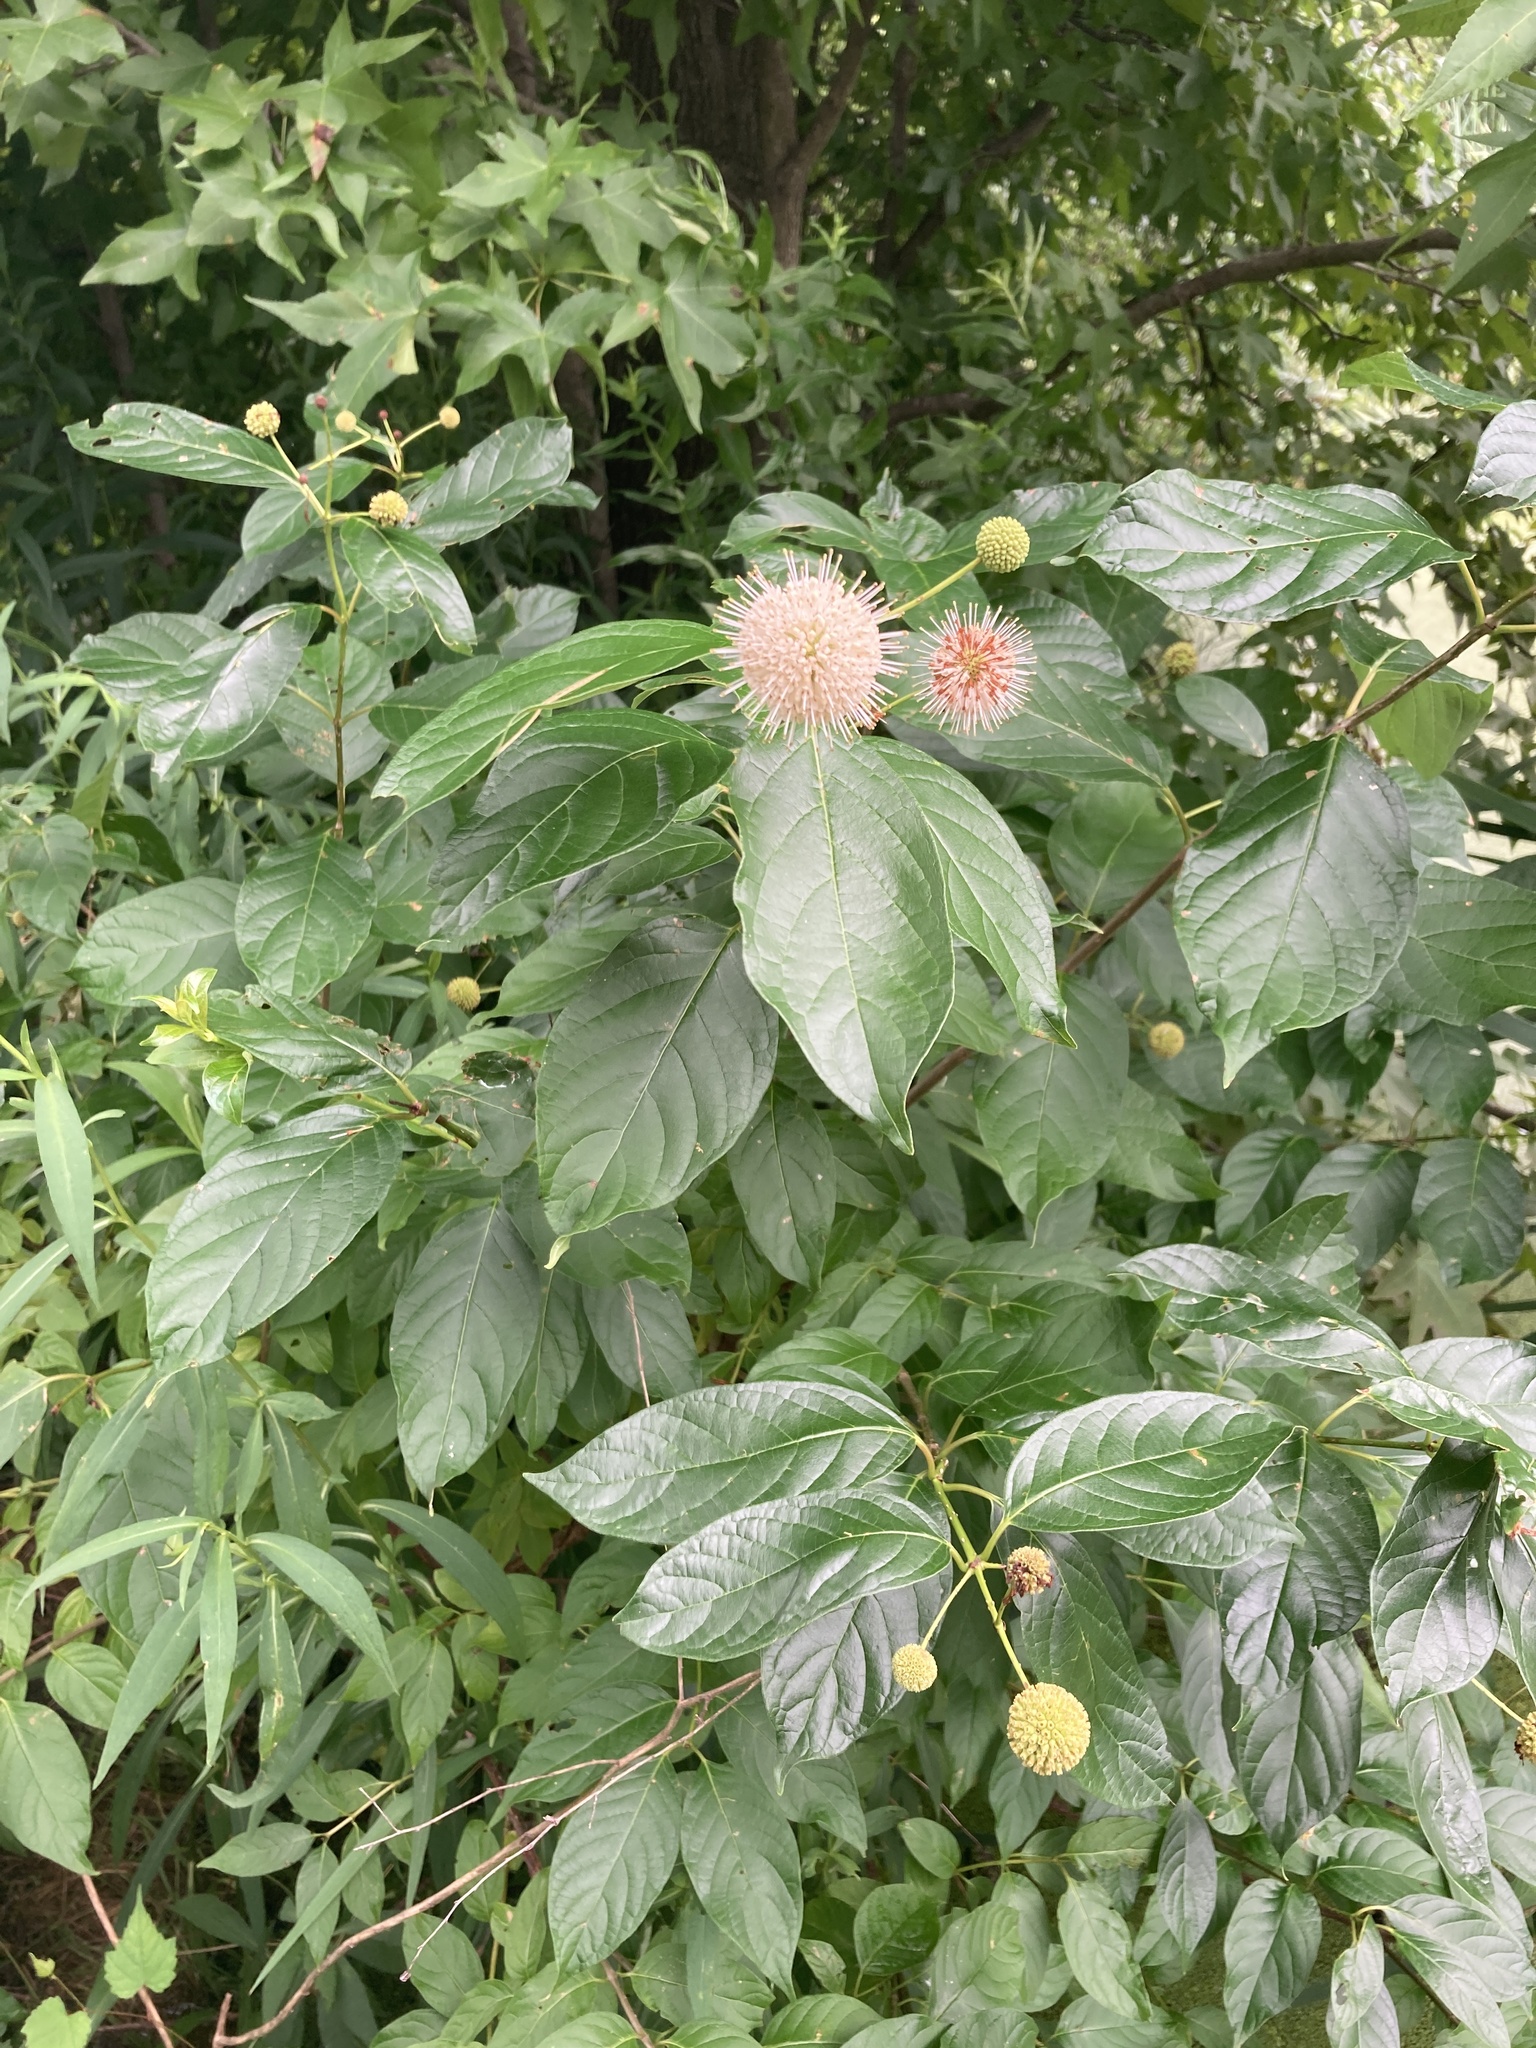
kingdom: Plantae
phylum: Tracheophyta
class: Magnoliopsida
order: Gentianales
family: Rubiaceae
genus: Cephalanthus
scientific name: Cephalanthus occidentalis
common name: Button-willow
